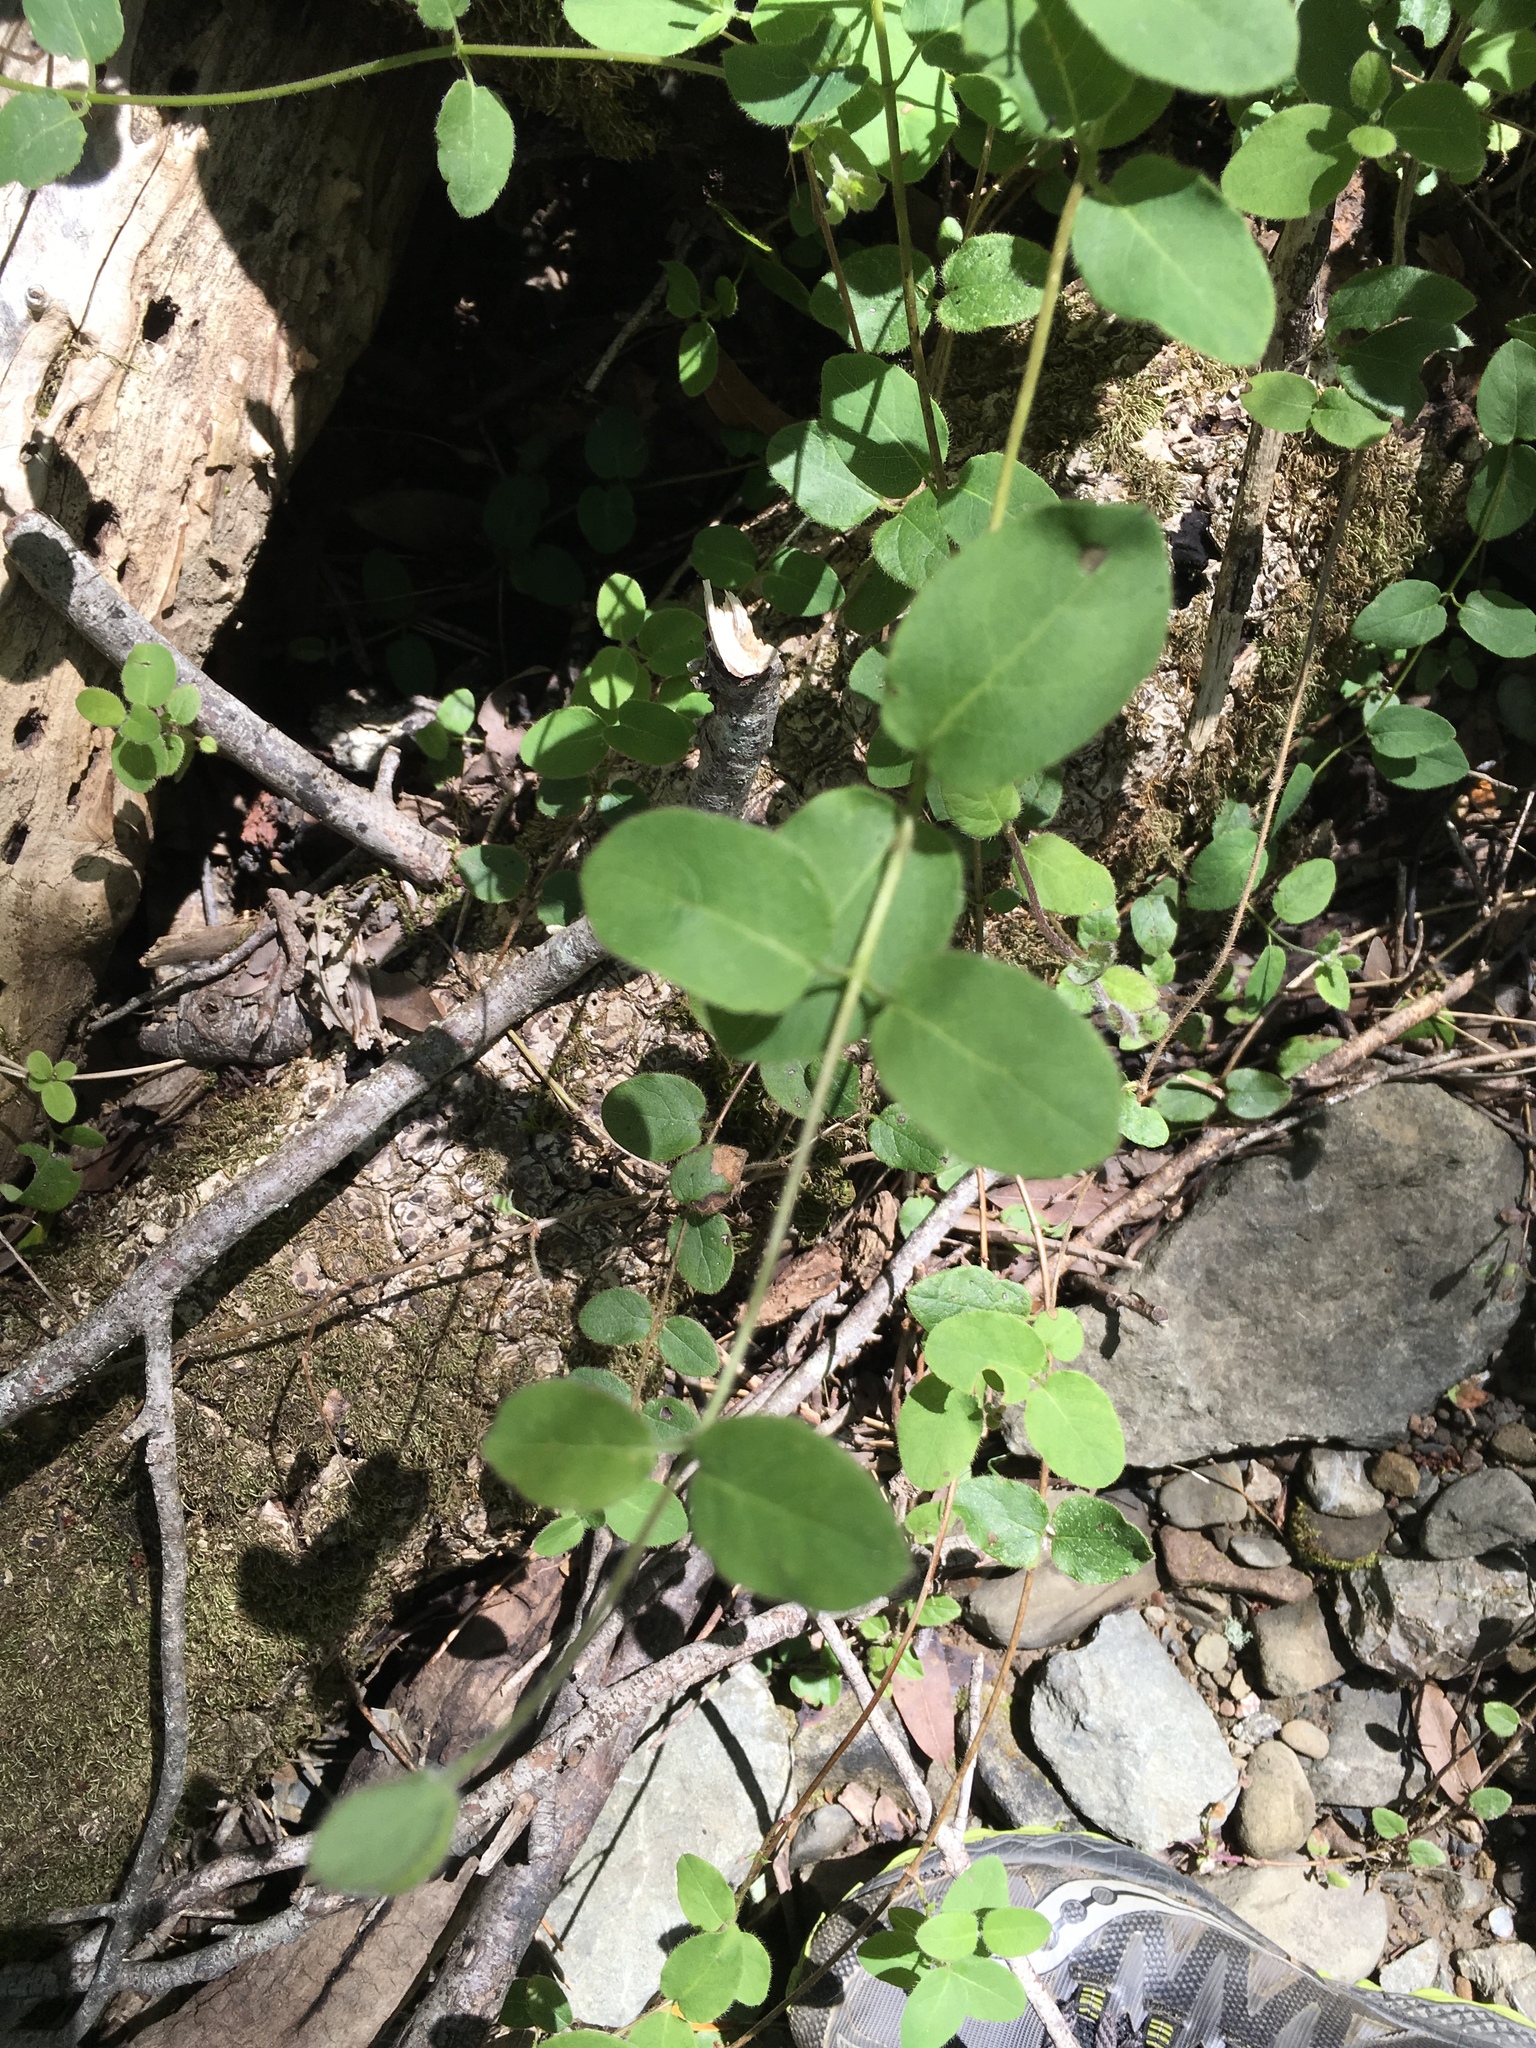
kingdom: Plantae
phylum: Tracheophyta
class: Magnoliopsida
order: Dipsacales
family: Caprifoliaceae
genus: Lonicera
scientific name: Lonicera hispidula
